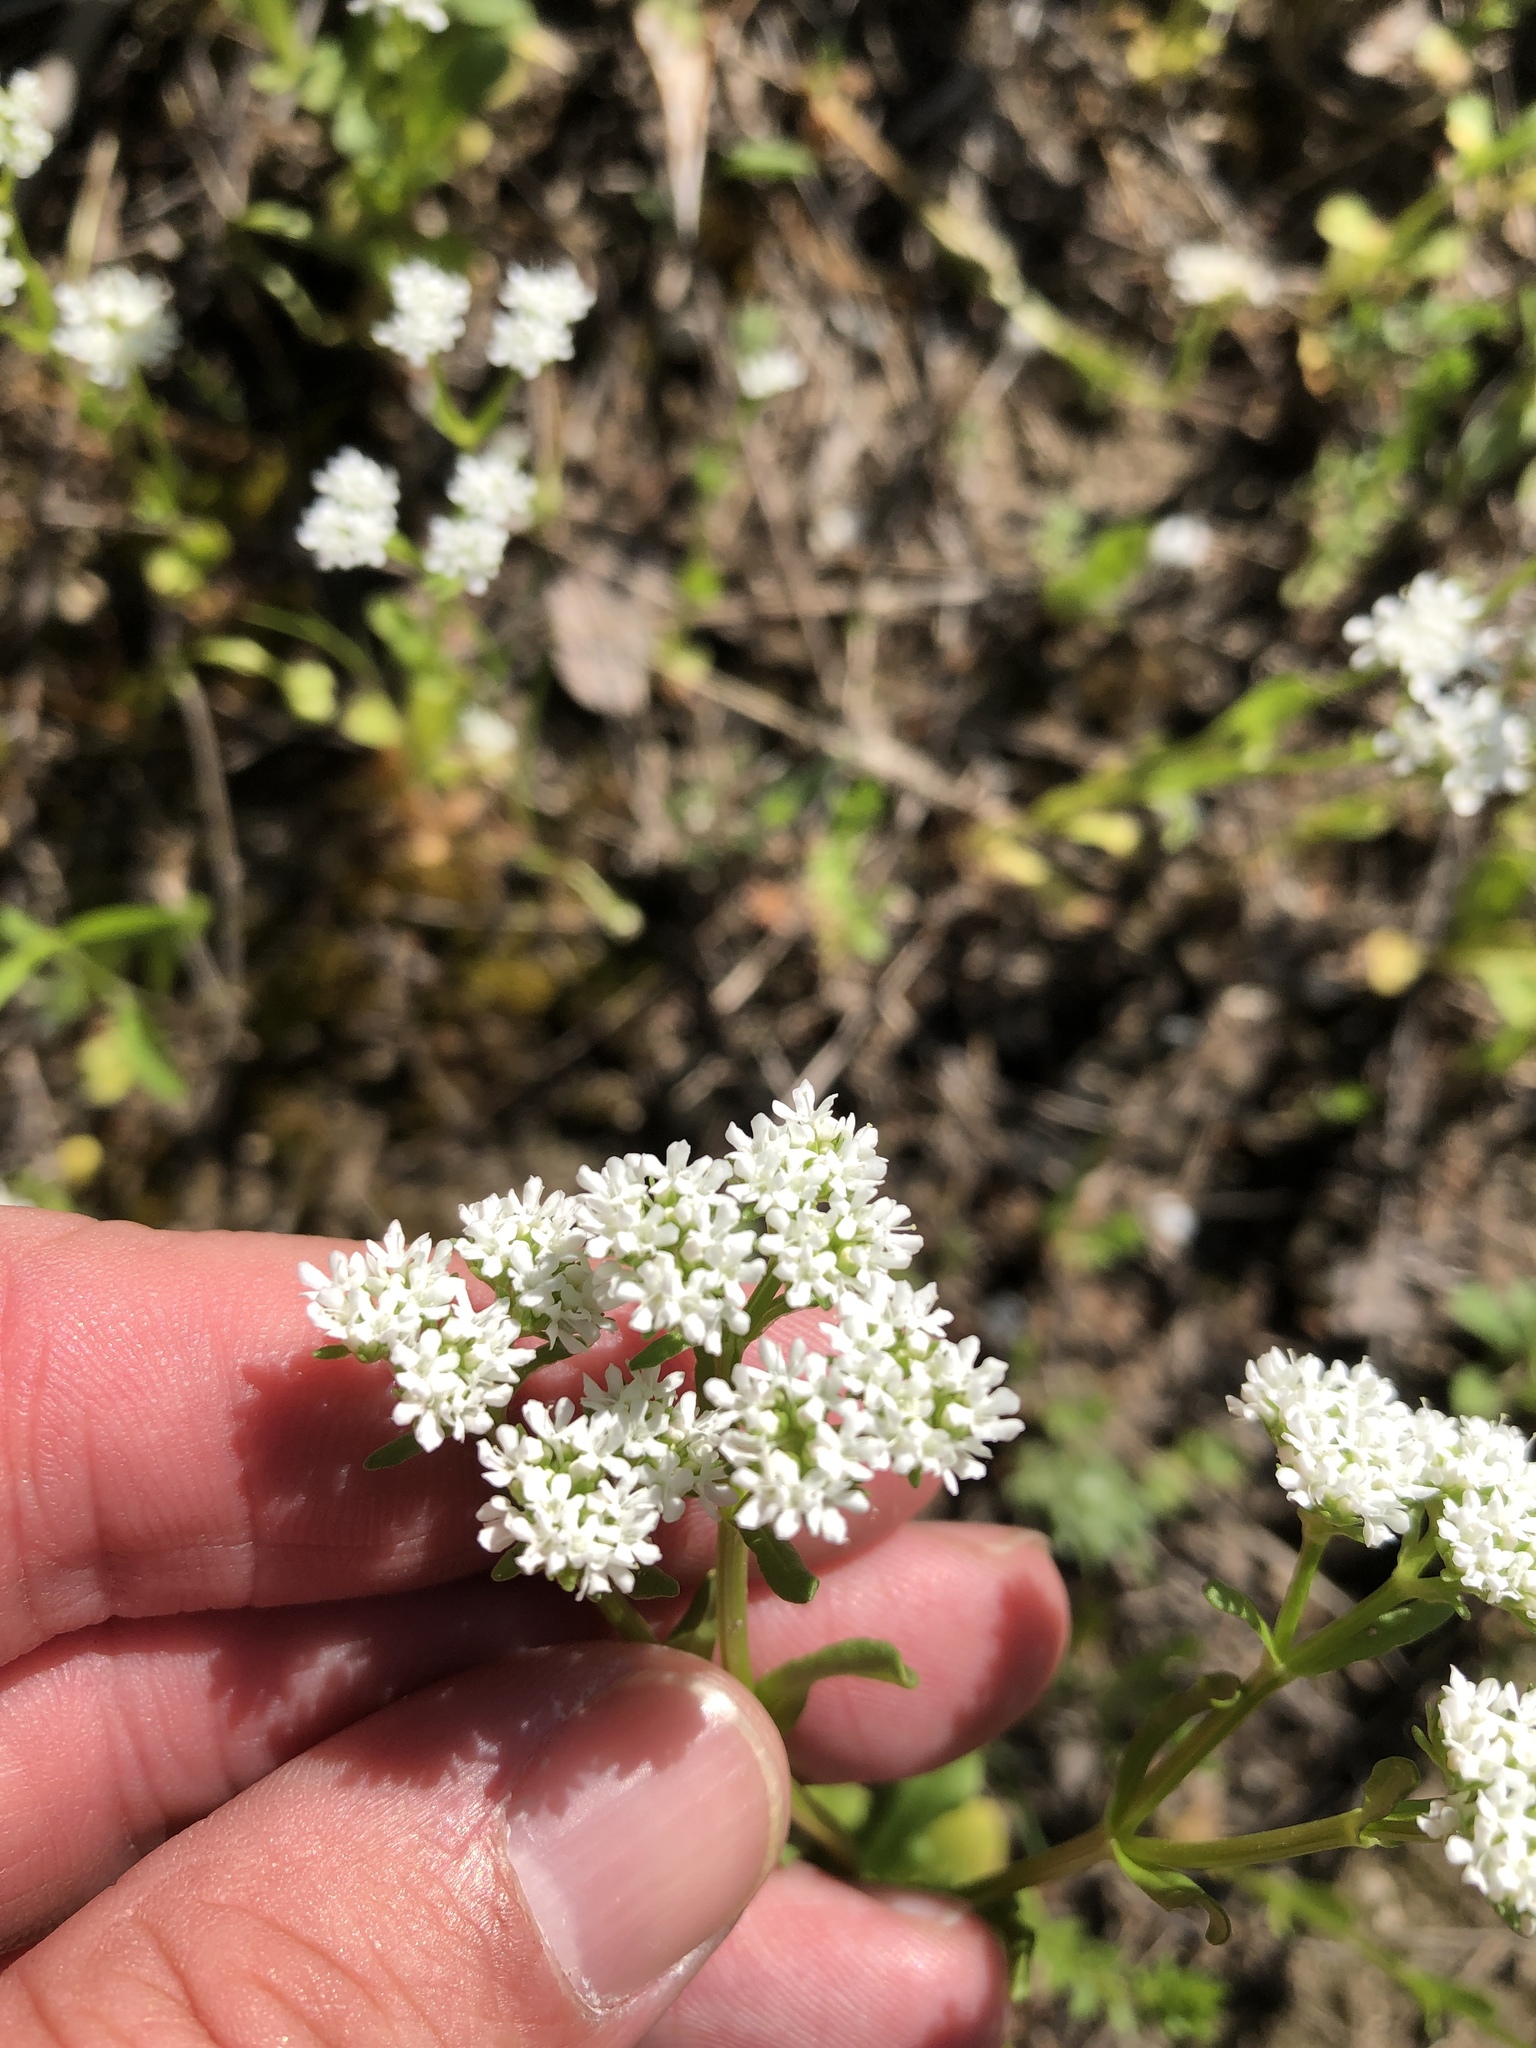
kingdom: Plantae
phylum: Tracheophyta
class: Magnoliopsida
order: Dipsacales
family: Caprifoliaceae
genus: Valerianella
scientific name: Valerianella amarella
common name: Hariy cornsalad
